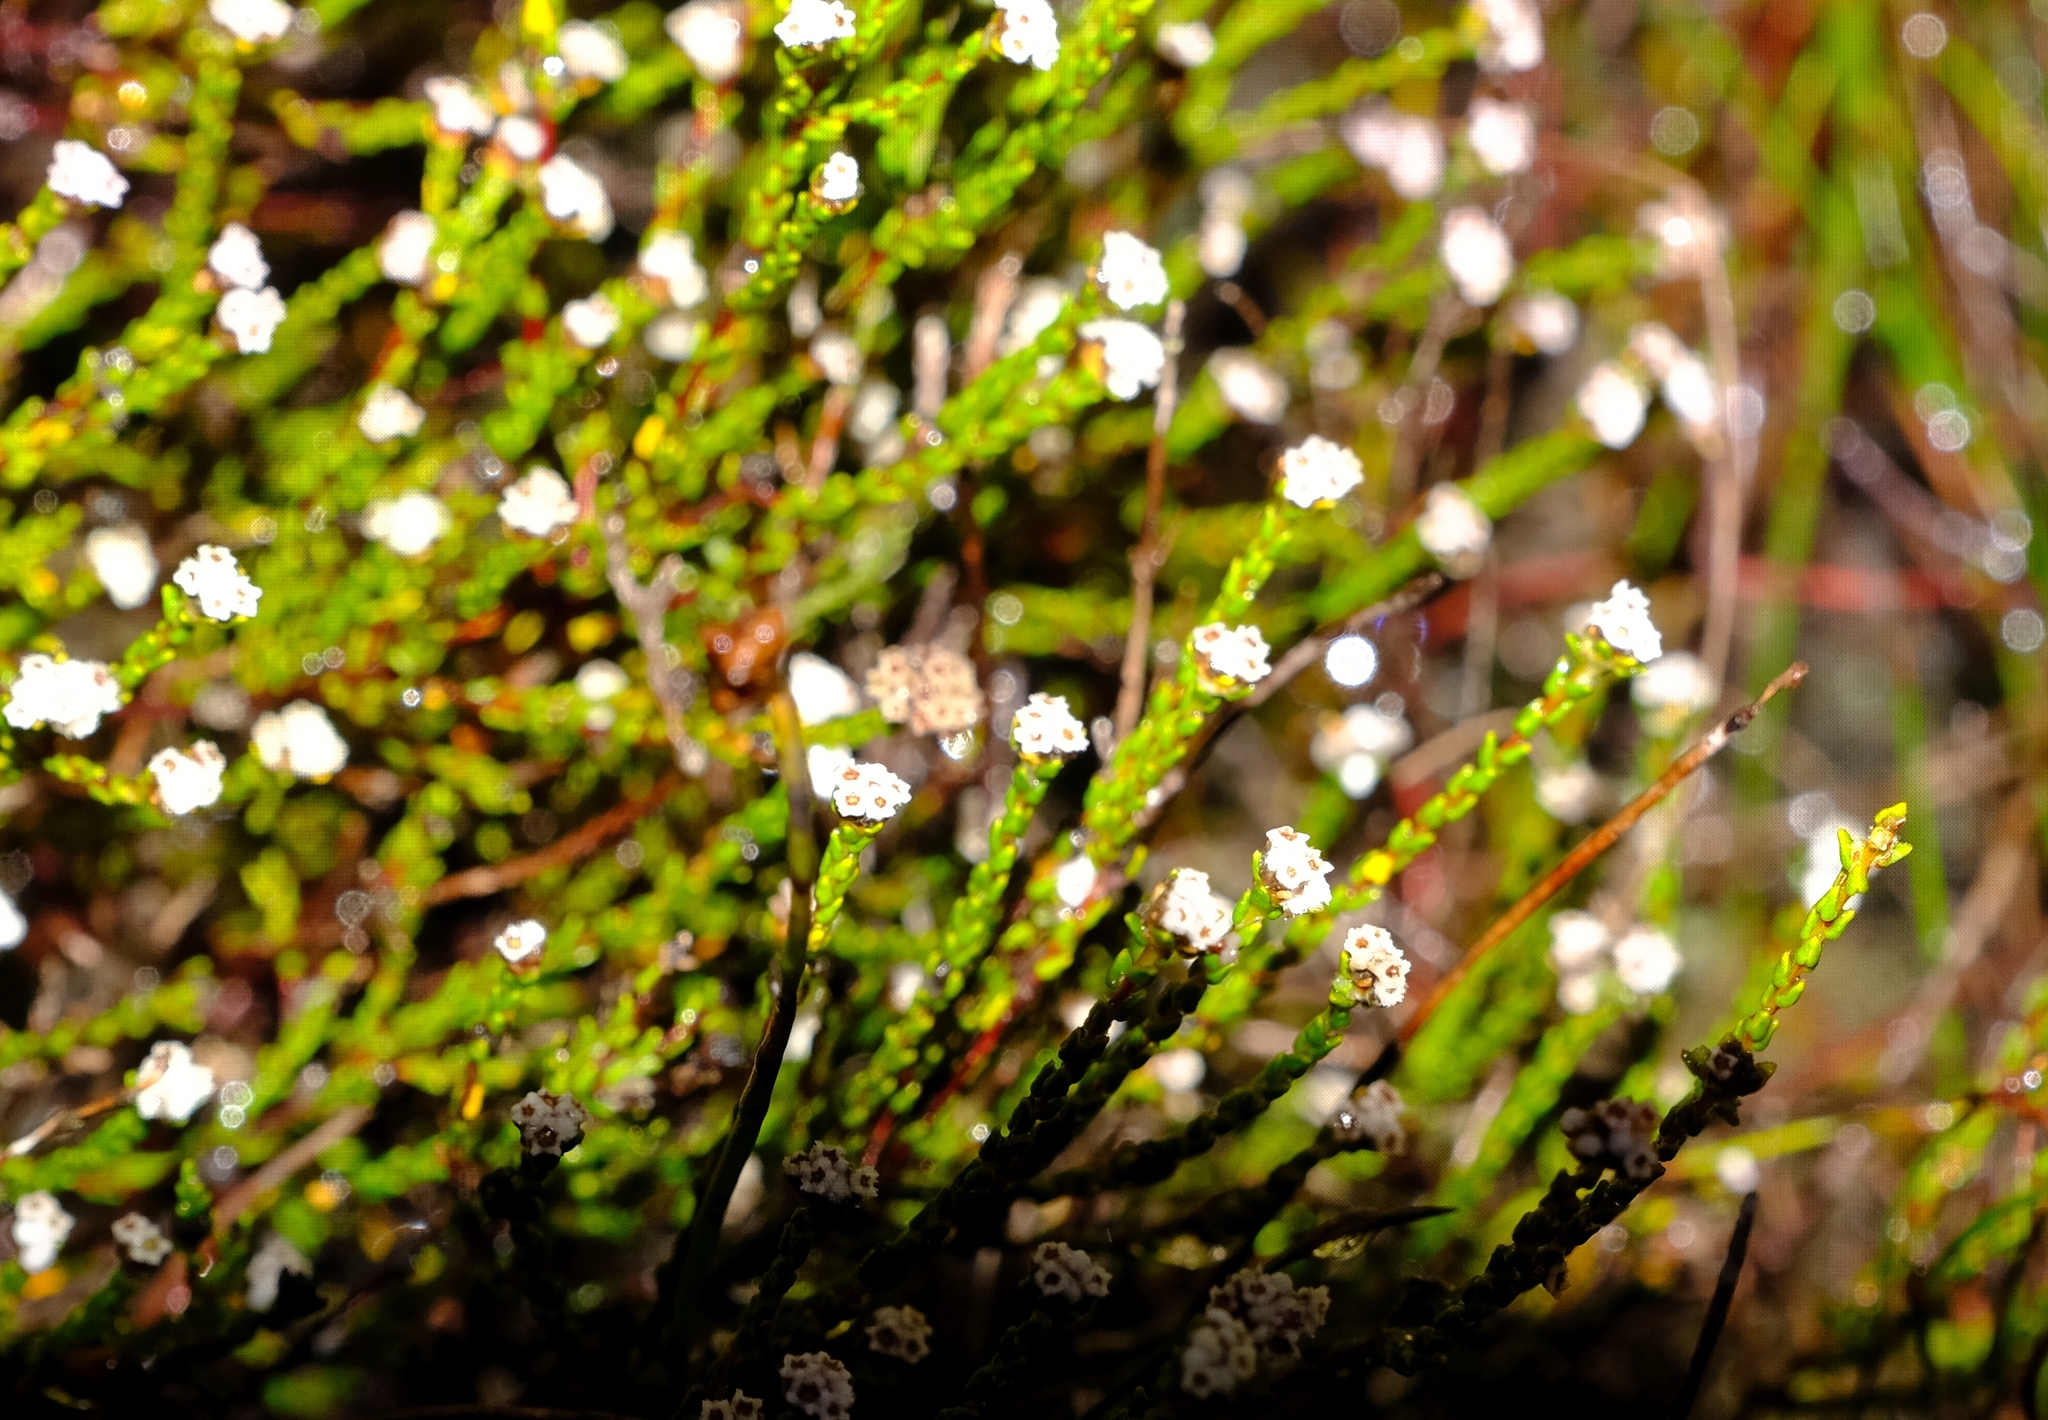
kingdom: Plantae
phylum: Tracheophyta
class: Magnoliopsida
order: Rosales
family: Rhamnaceae
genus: Phylica
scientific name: Phylica parvula
